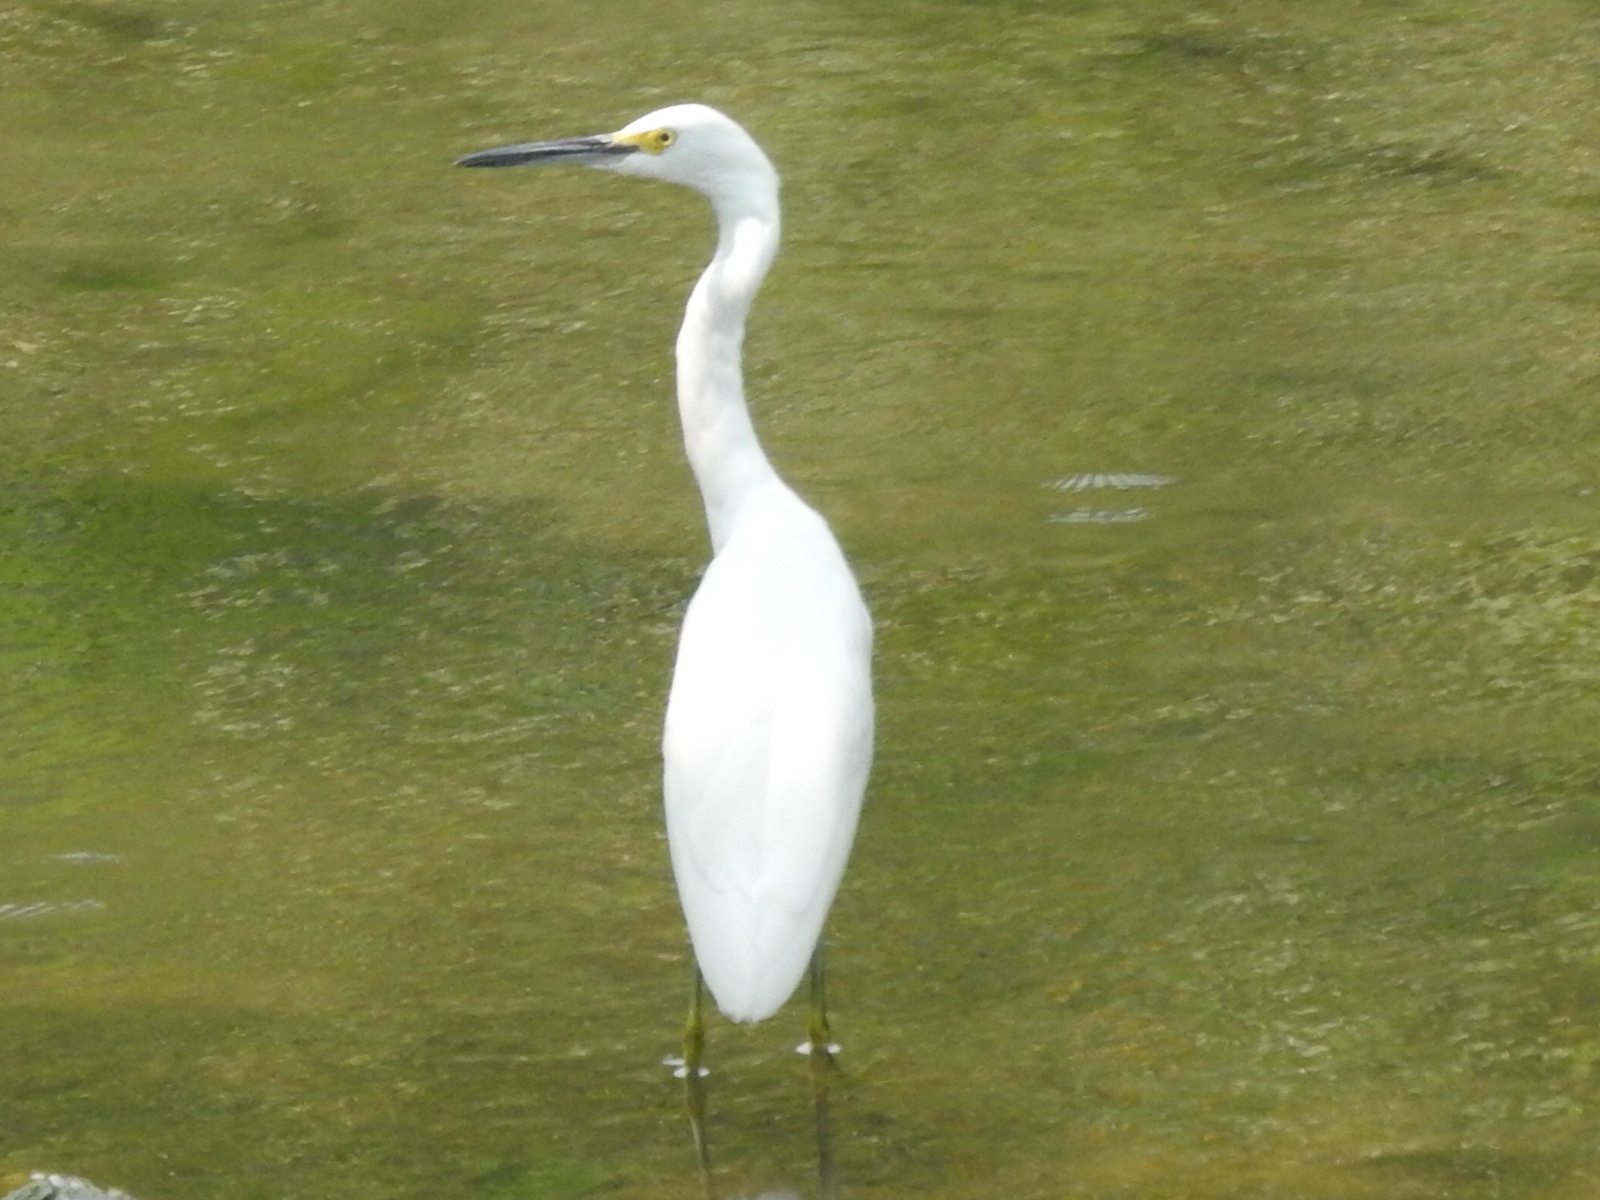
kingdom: Animalia
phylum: Chordata
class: Aves
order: Pelecaniformes
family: Ardeidae
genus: Egretta
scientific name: Egretta thula
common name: Snowy egret
